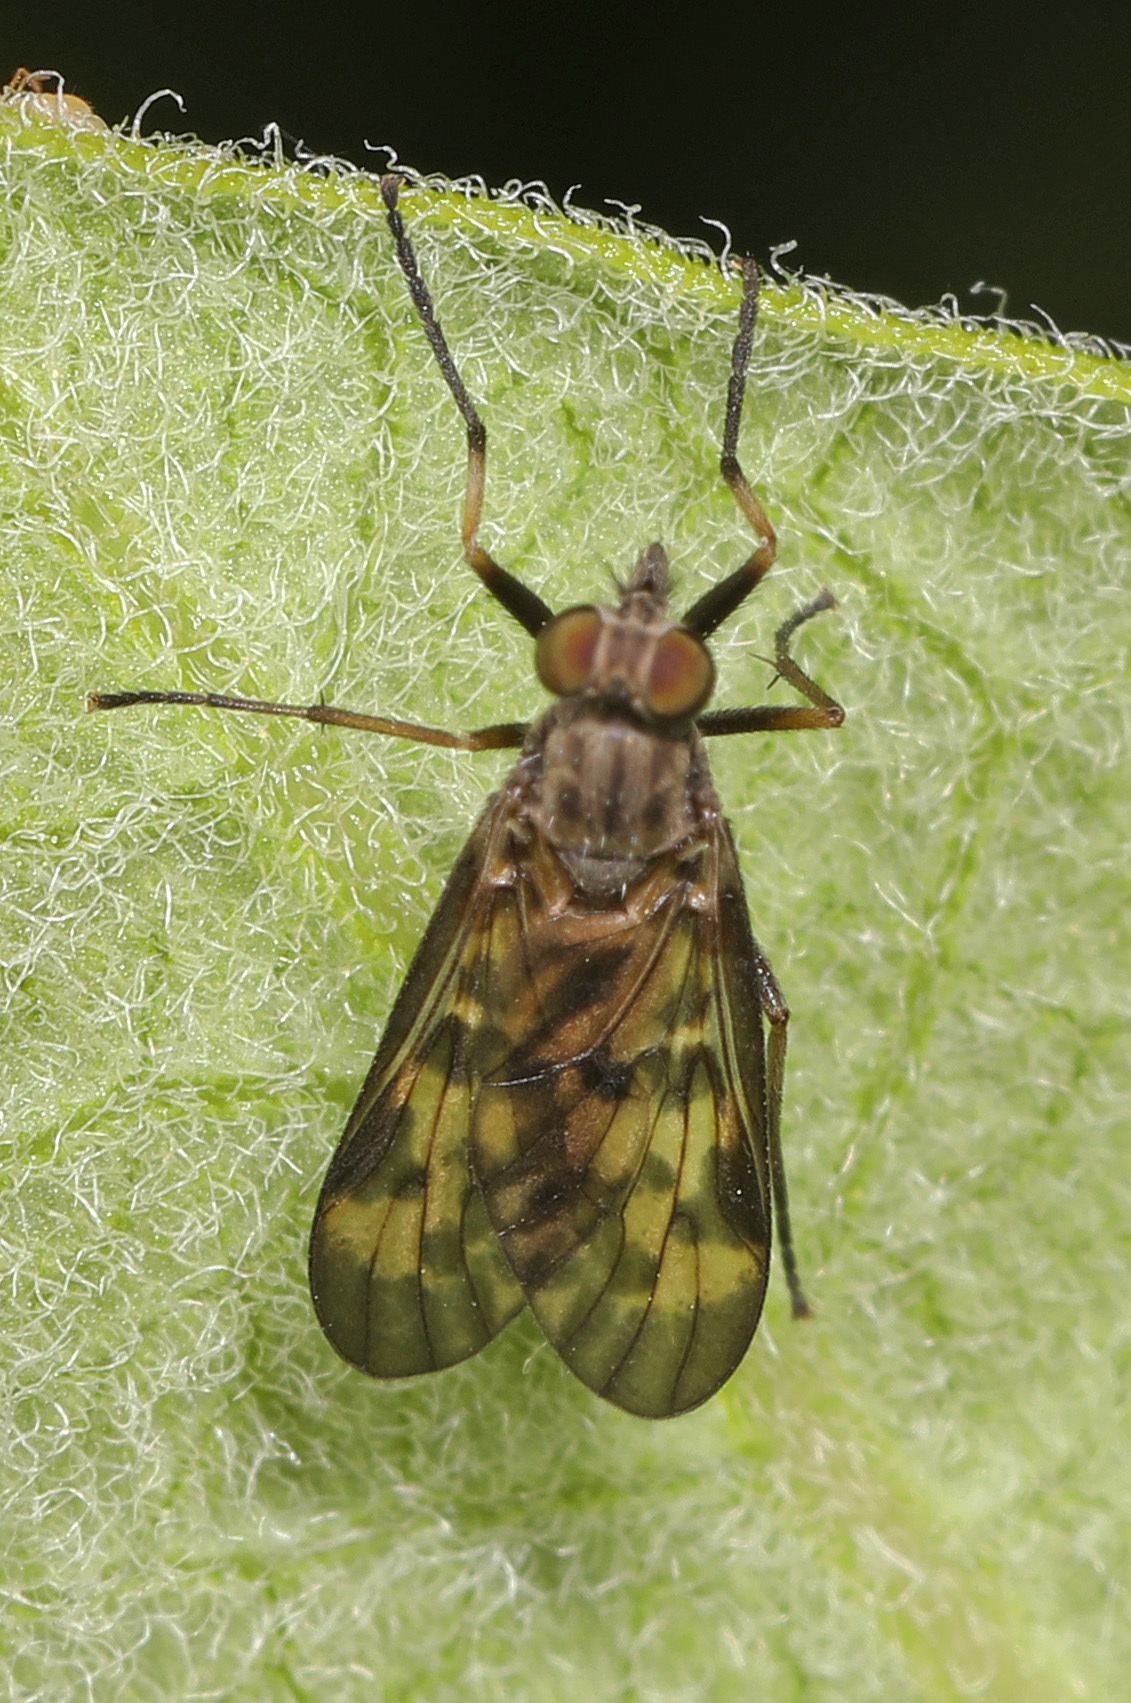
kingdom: Animalia
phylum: Arthropoda
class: Insecta
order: Diptera
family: Rhagionidae
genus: Rhagio
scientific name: Rhagio punctipennis
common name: Lesser variegated snipe fly
